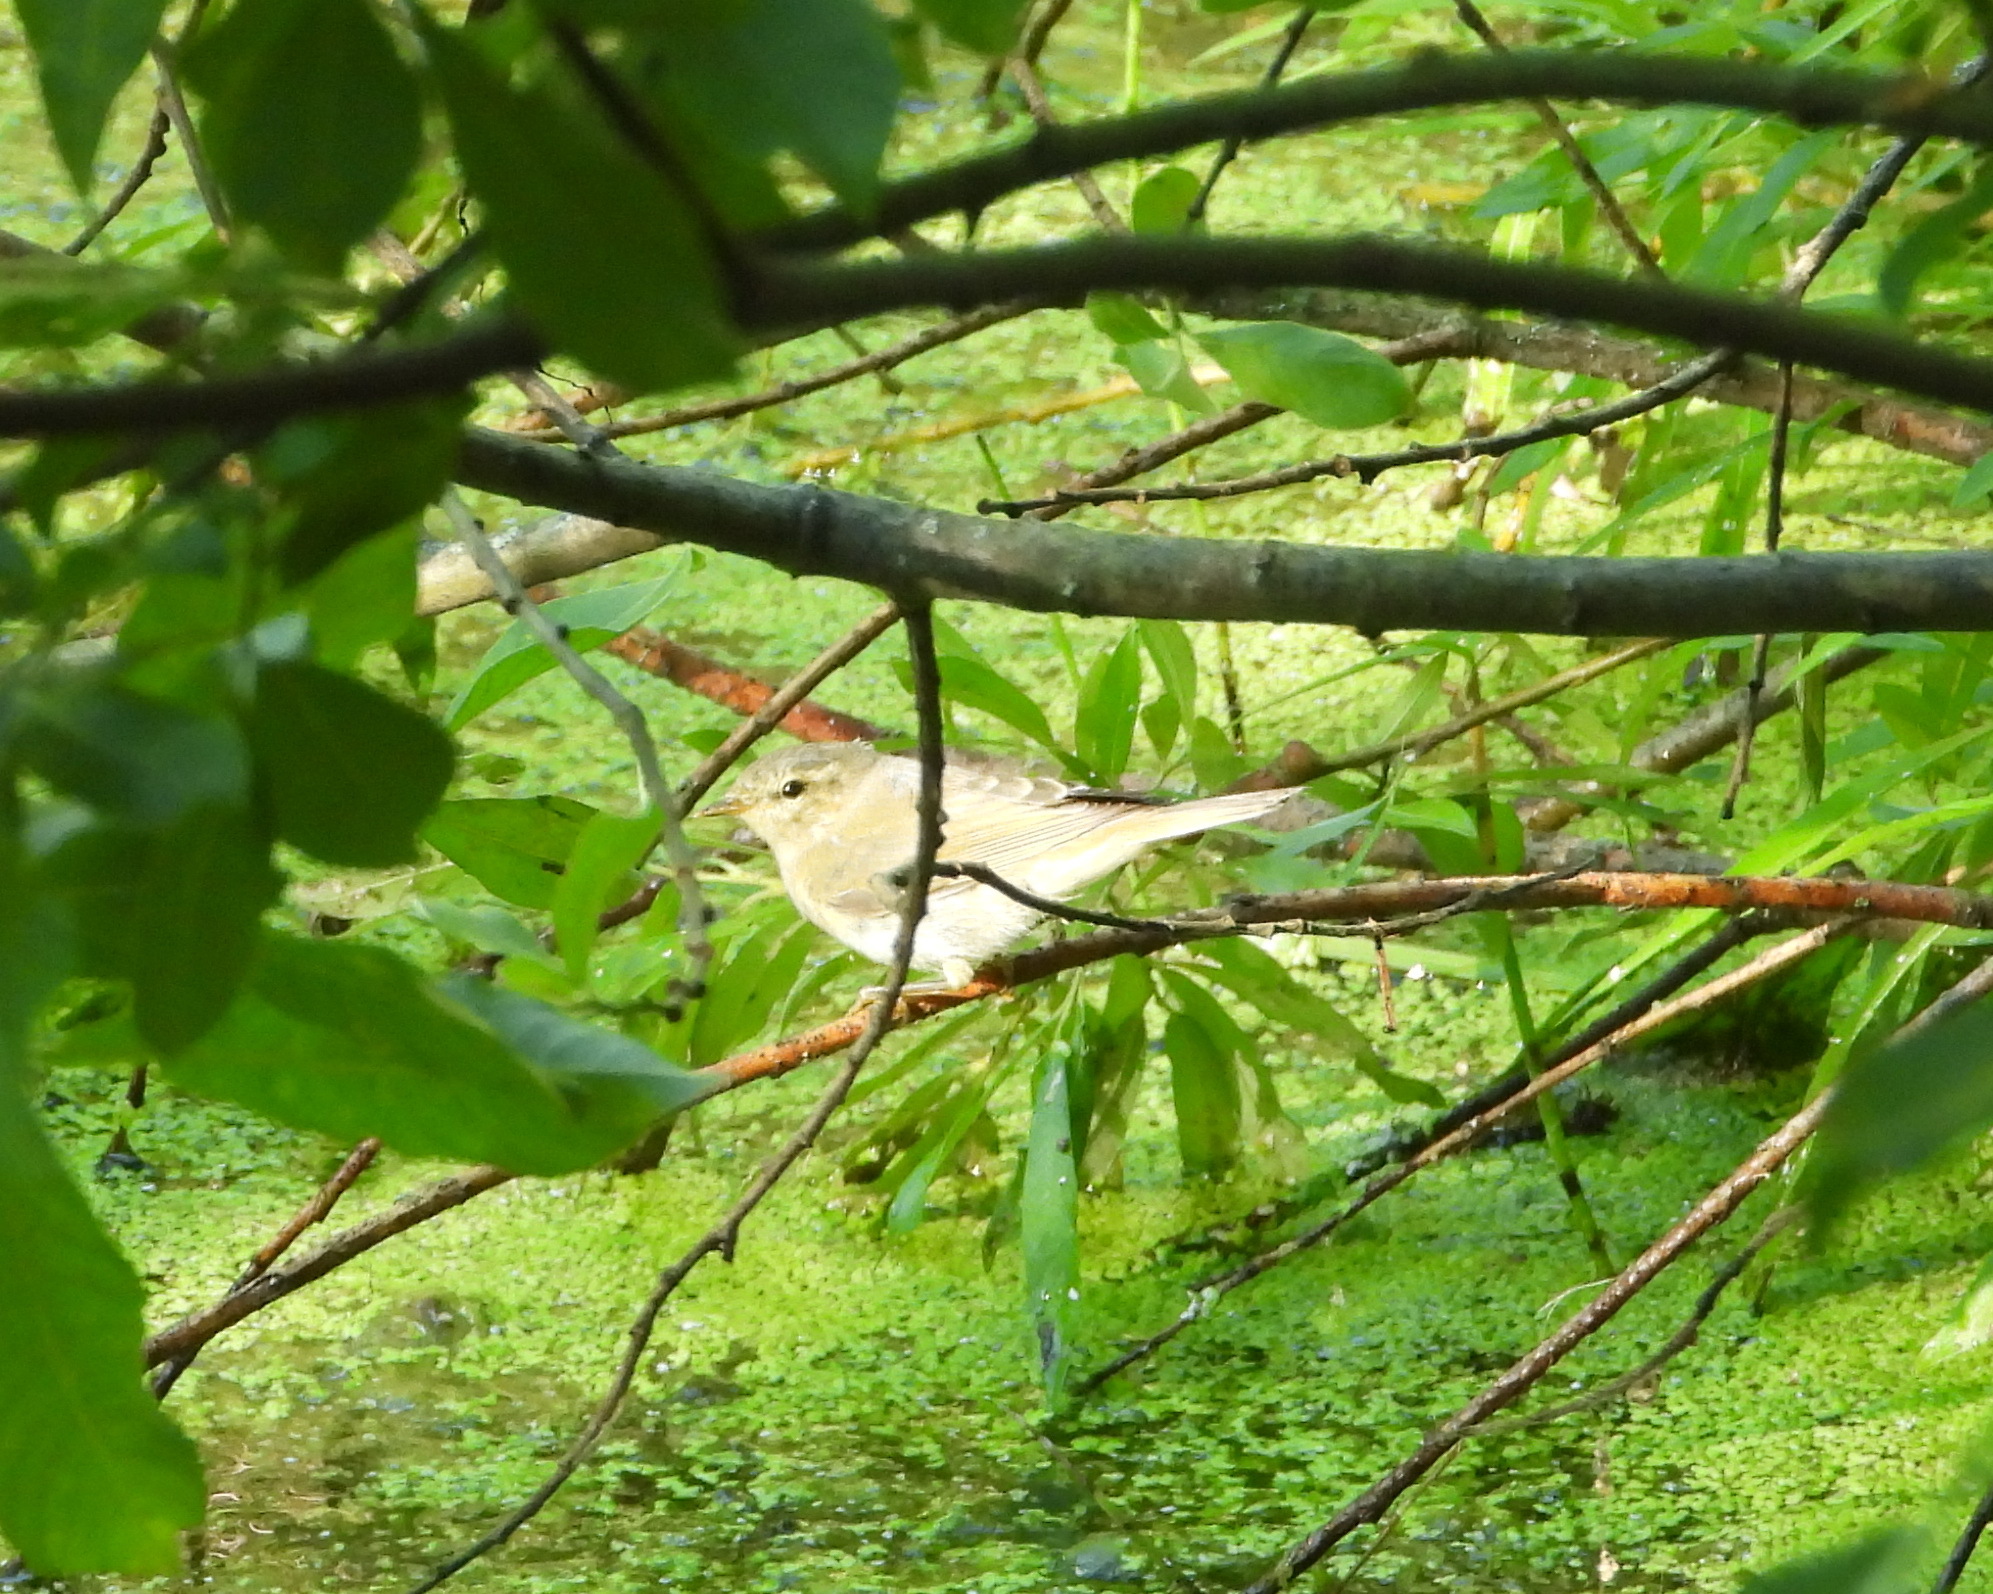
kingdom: Animalia
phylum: Chordata
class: Aves
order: Passeriformes
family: Phylloscopidae
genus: Phylloscopus
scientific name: Phylloscopus trochilus
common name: Willow warbler
